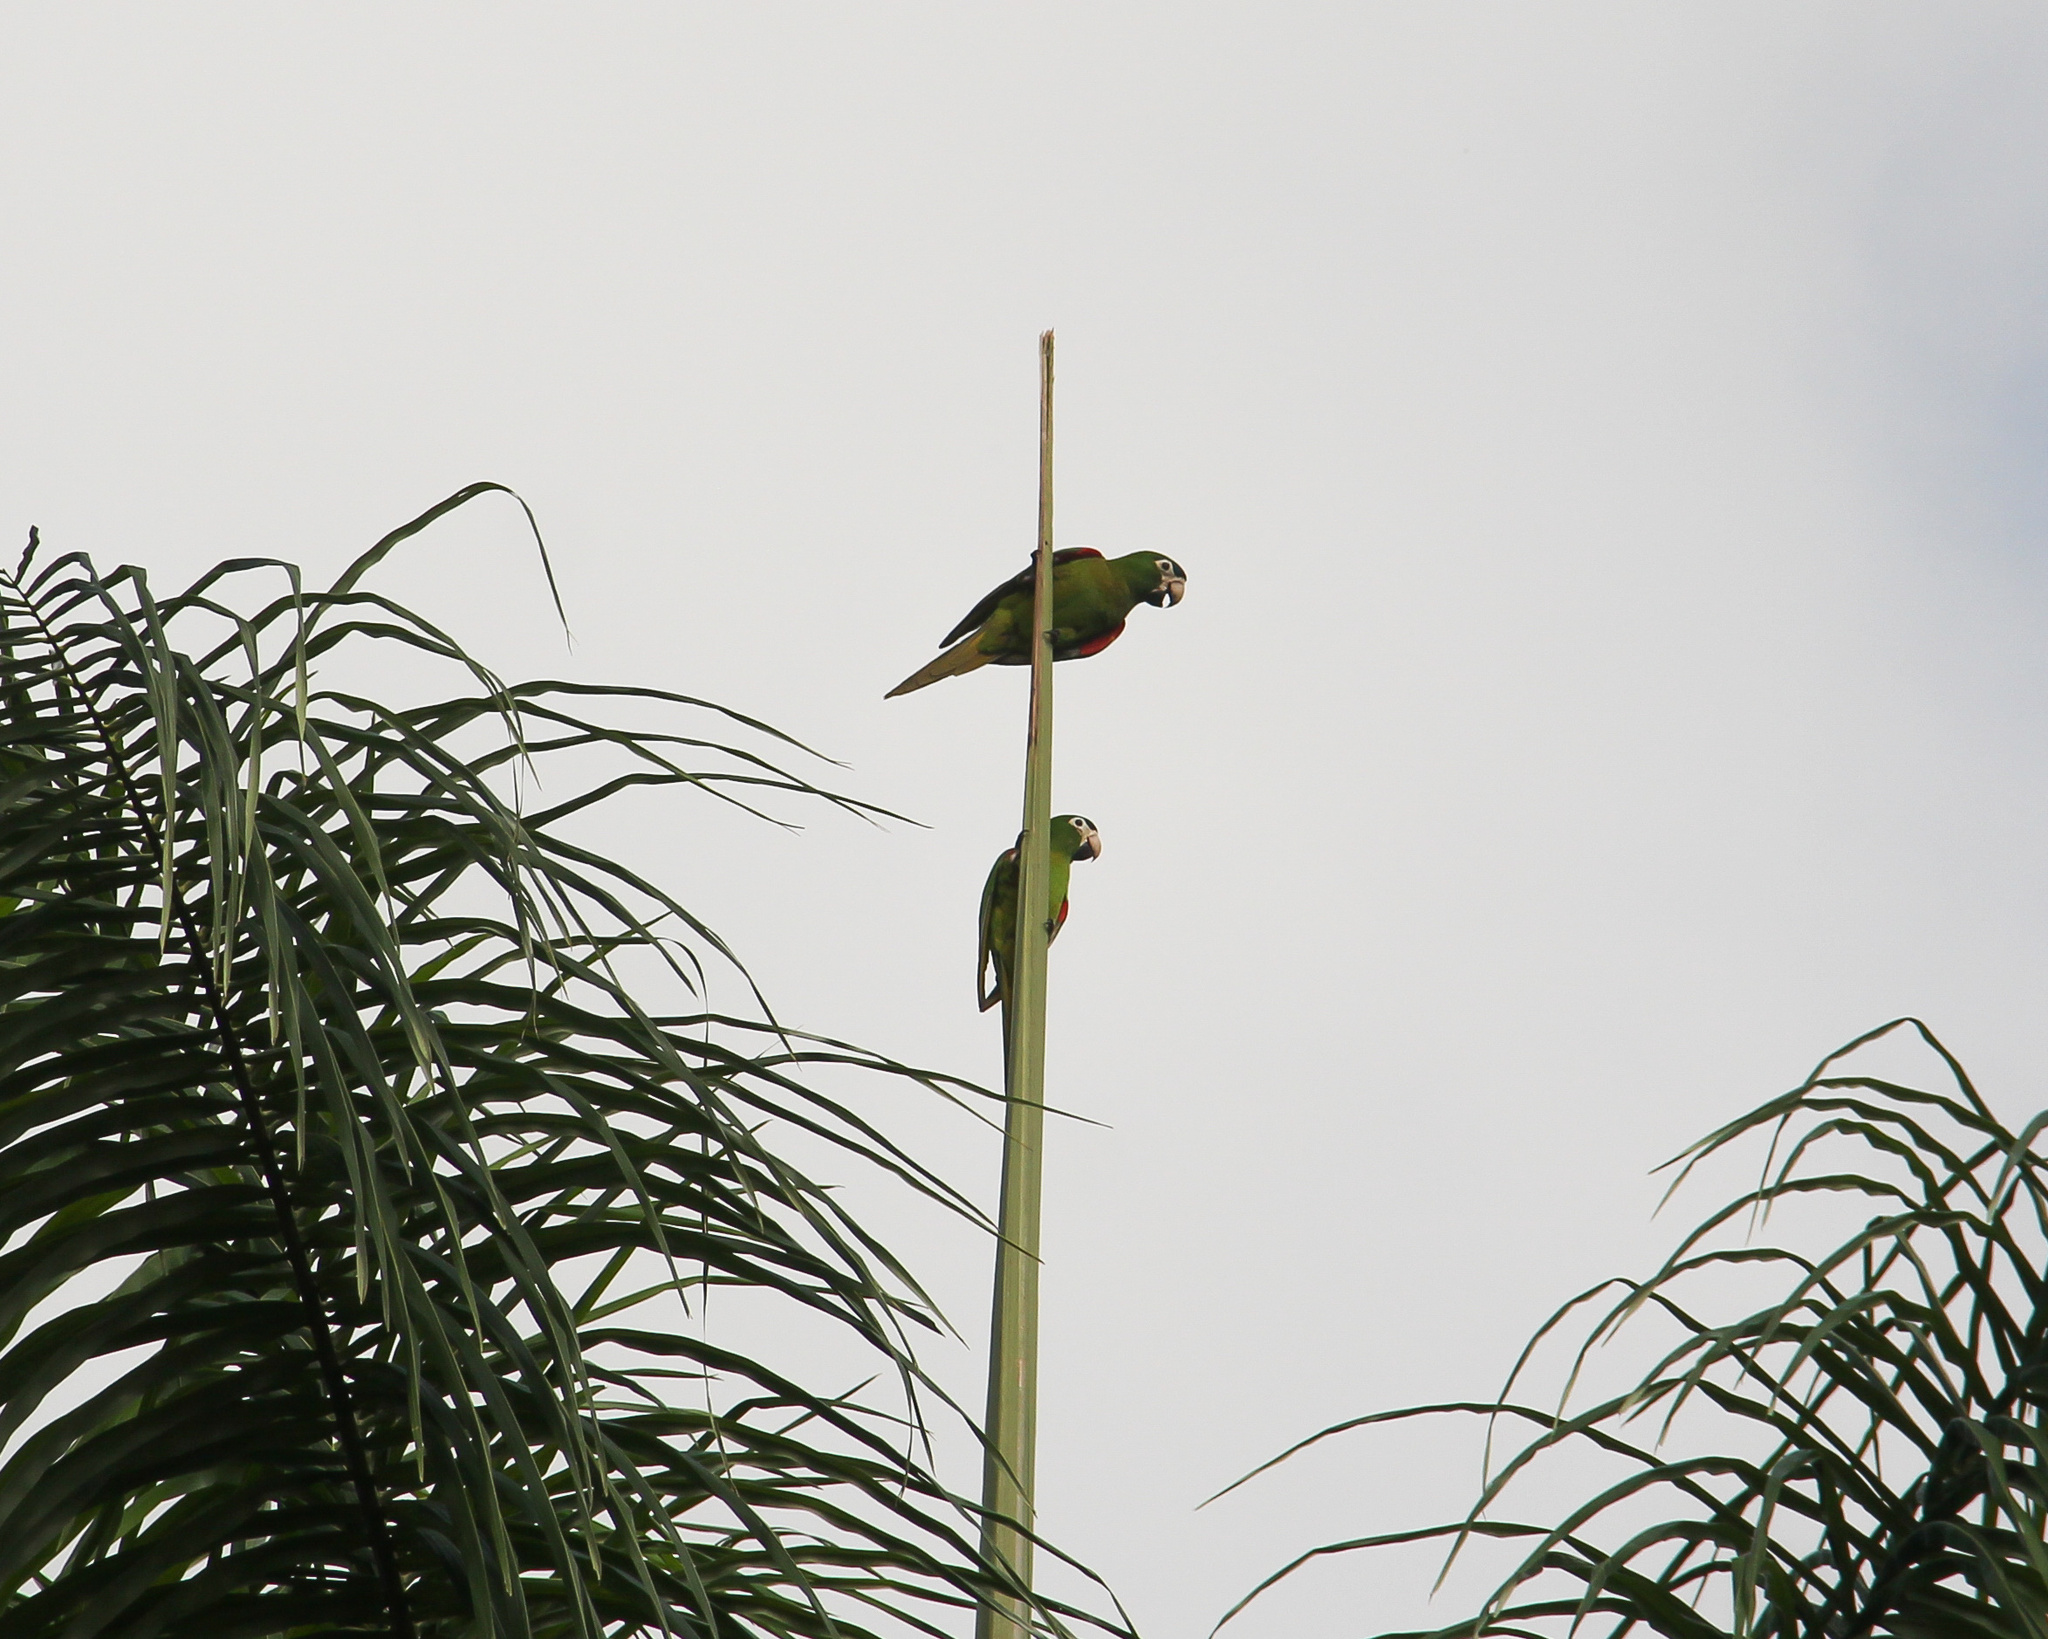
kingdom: Animalia
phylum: Chordata
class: Aves
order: Psittaciformes
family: Psittacidae
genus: Diopsittaca
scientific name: Diopsittaca nobilis
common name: Red-shouldered macaw
